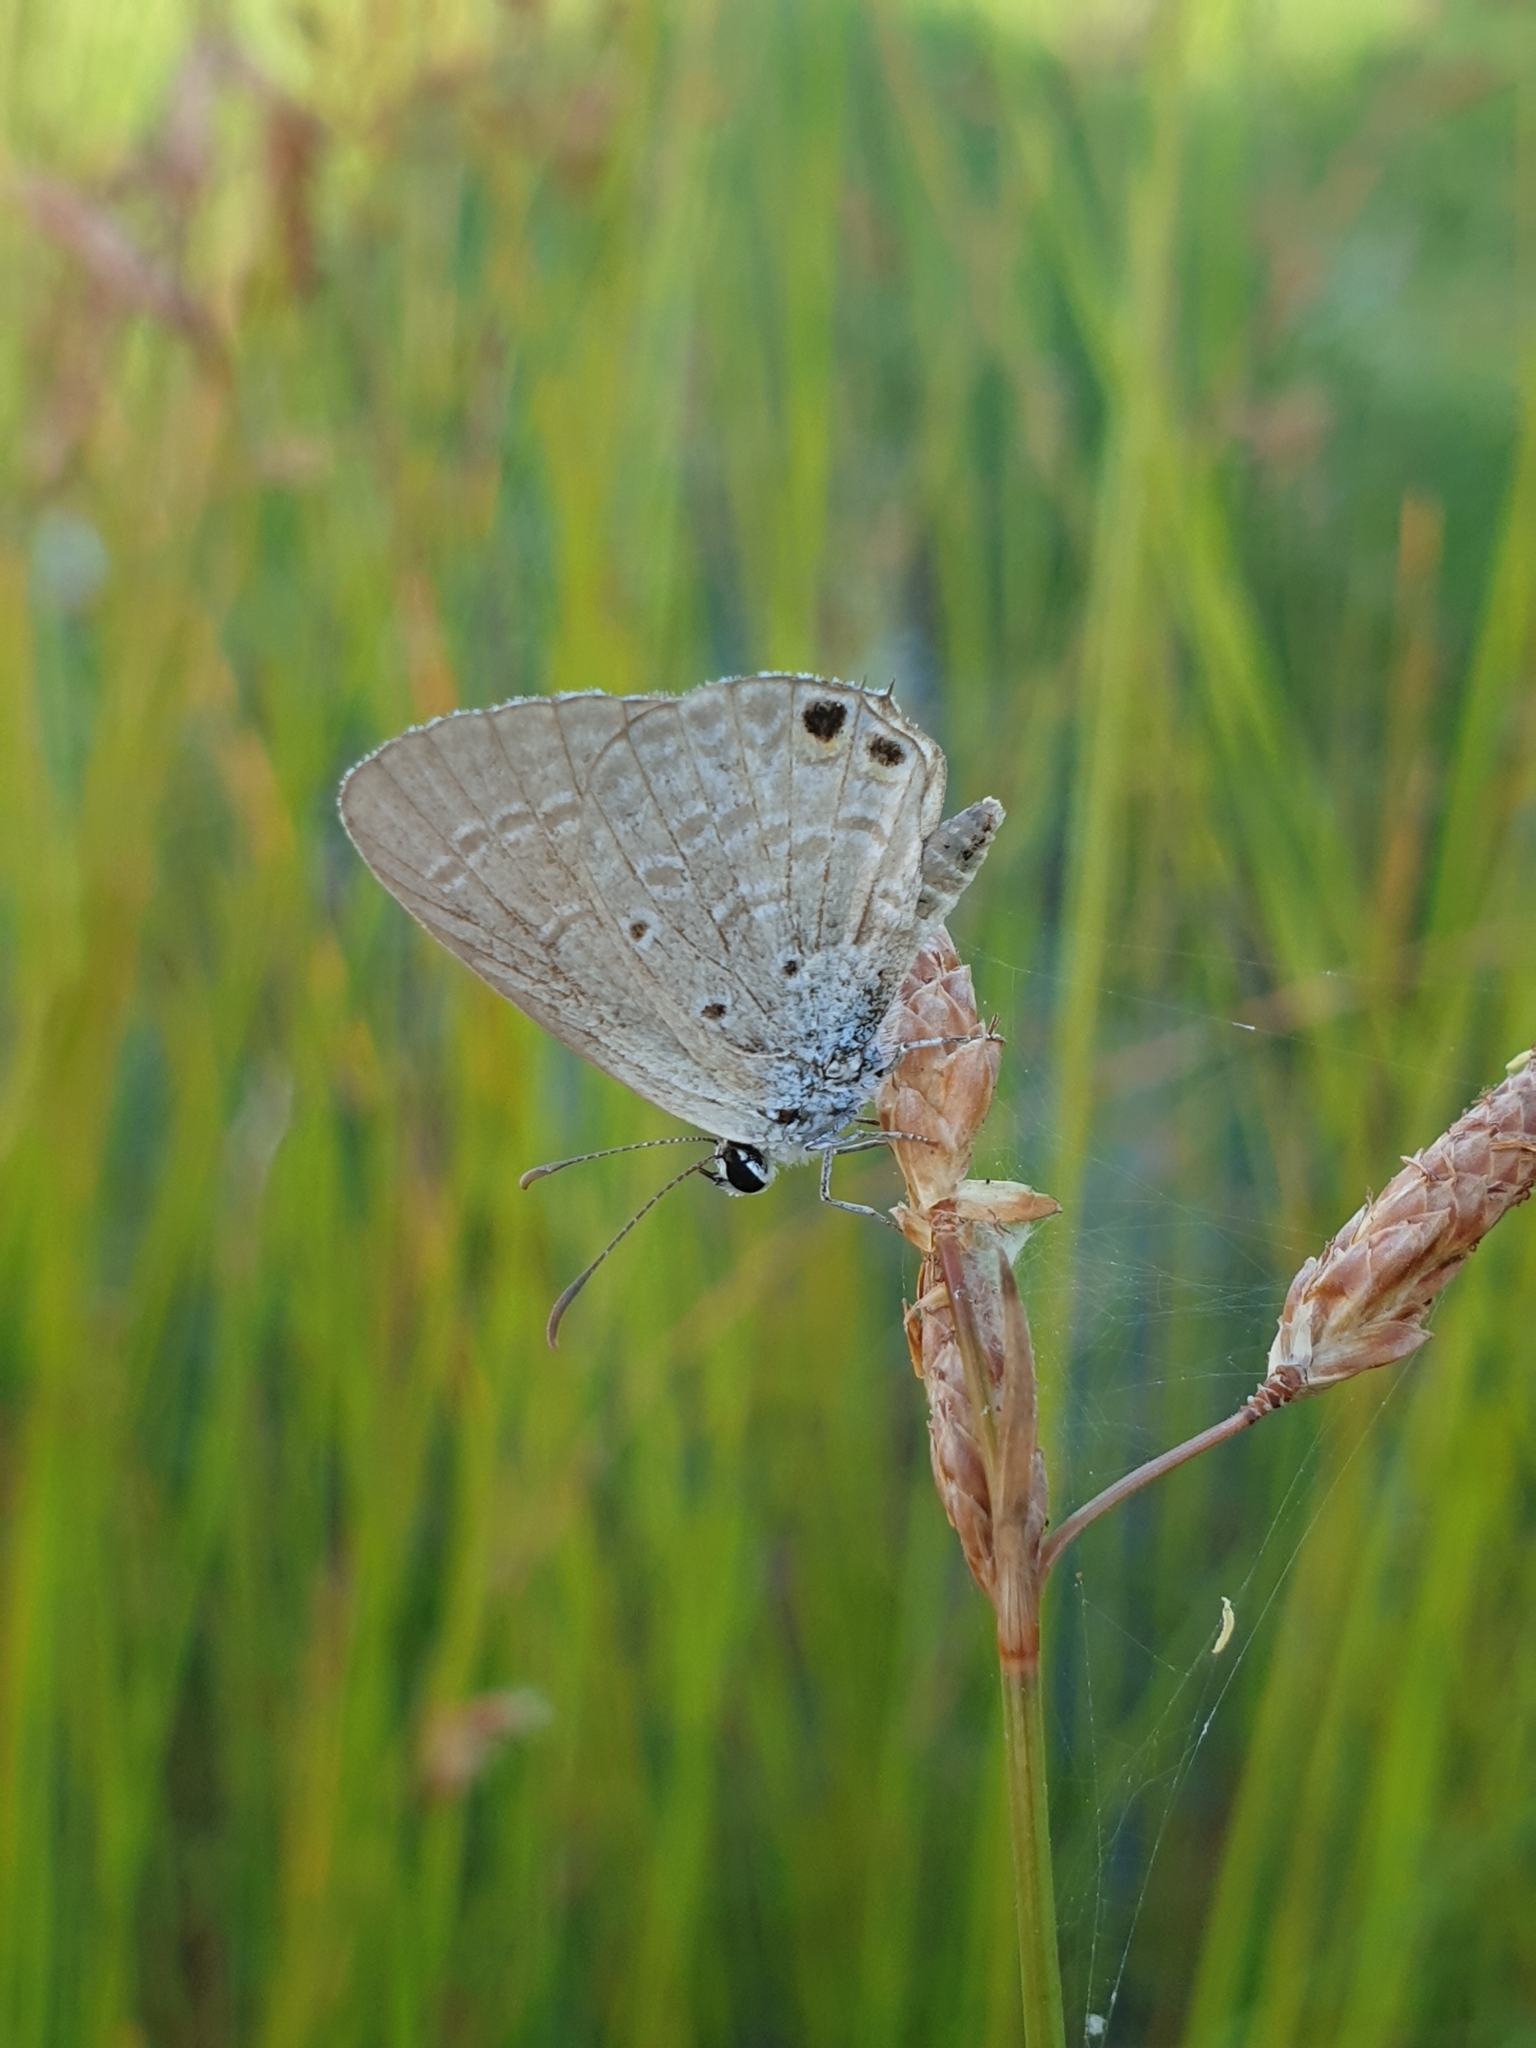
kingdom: Animalia
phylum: Arthropoda
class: Insecta
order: Lepidoptera
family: Lycaenidae
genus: Euchrysops
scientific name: Euchrysops cnejus
